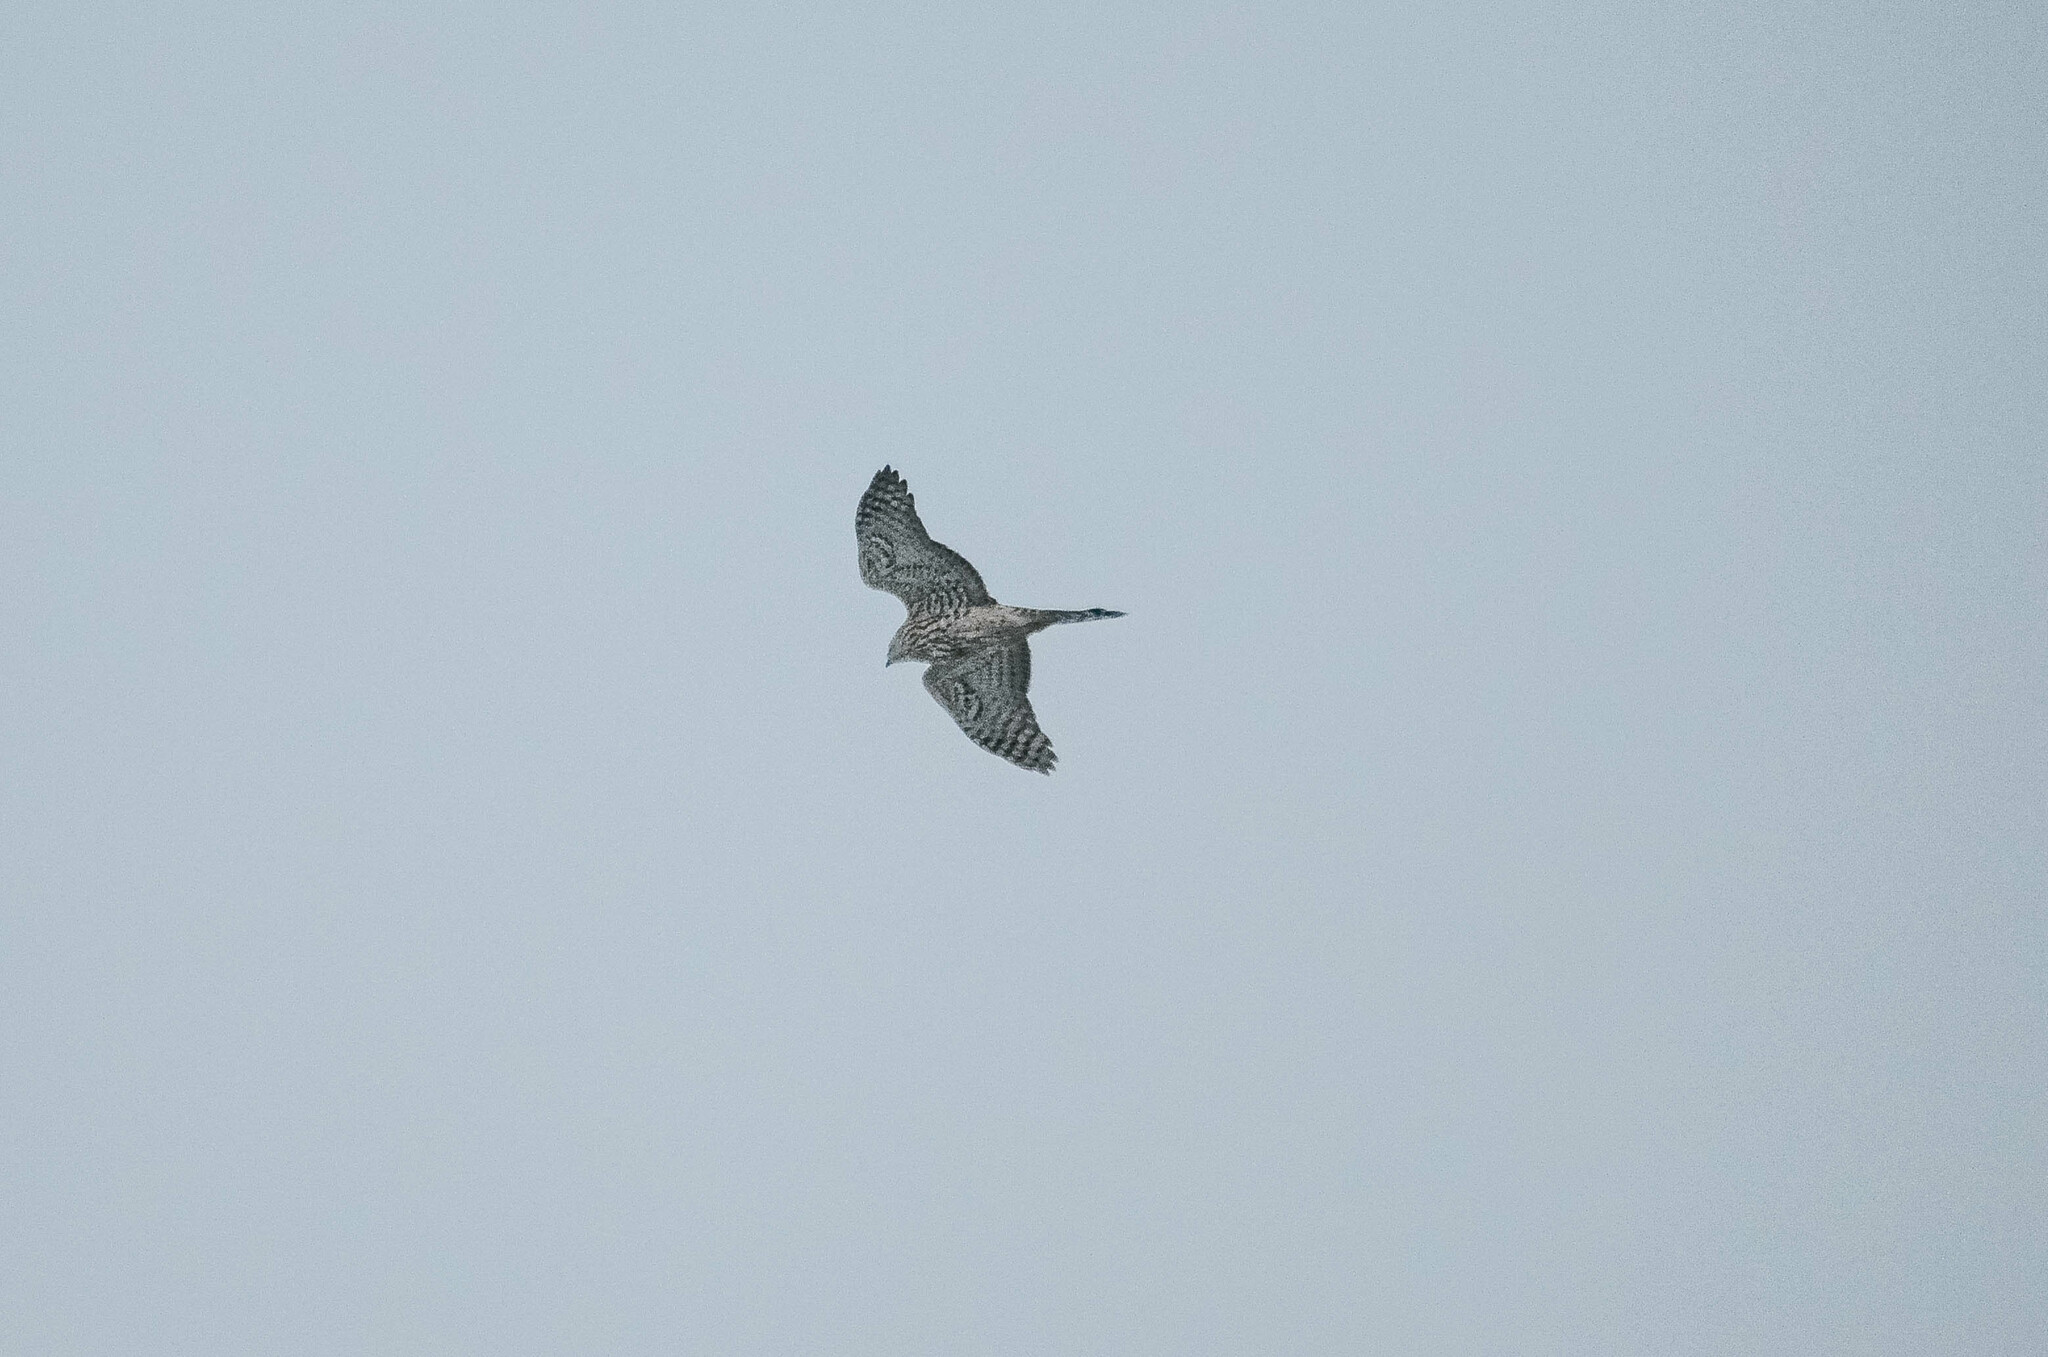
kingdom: Animalia
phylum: Chordata
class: Aves
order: Accipitriformes
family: Accipitridae
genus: Accipiter
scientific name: Accipiter gentilis
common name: Northern goshawk
